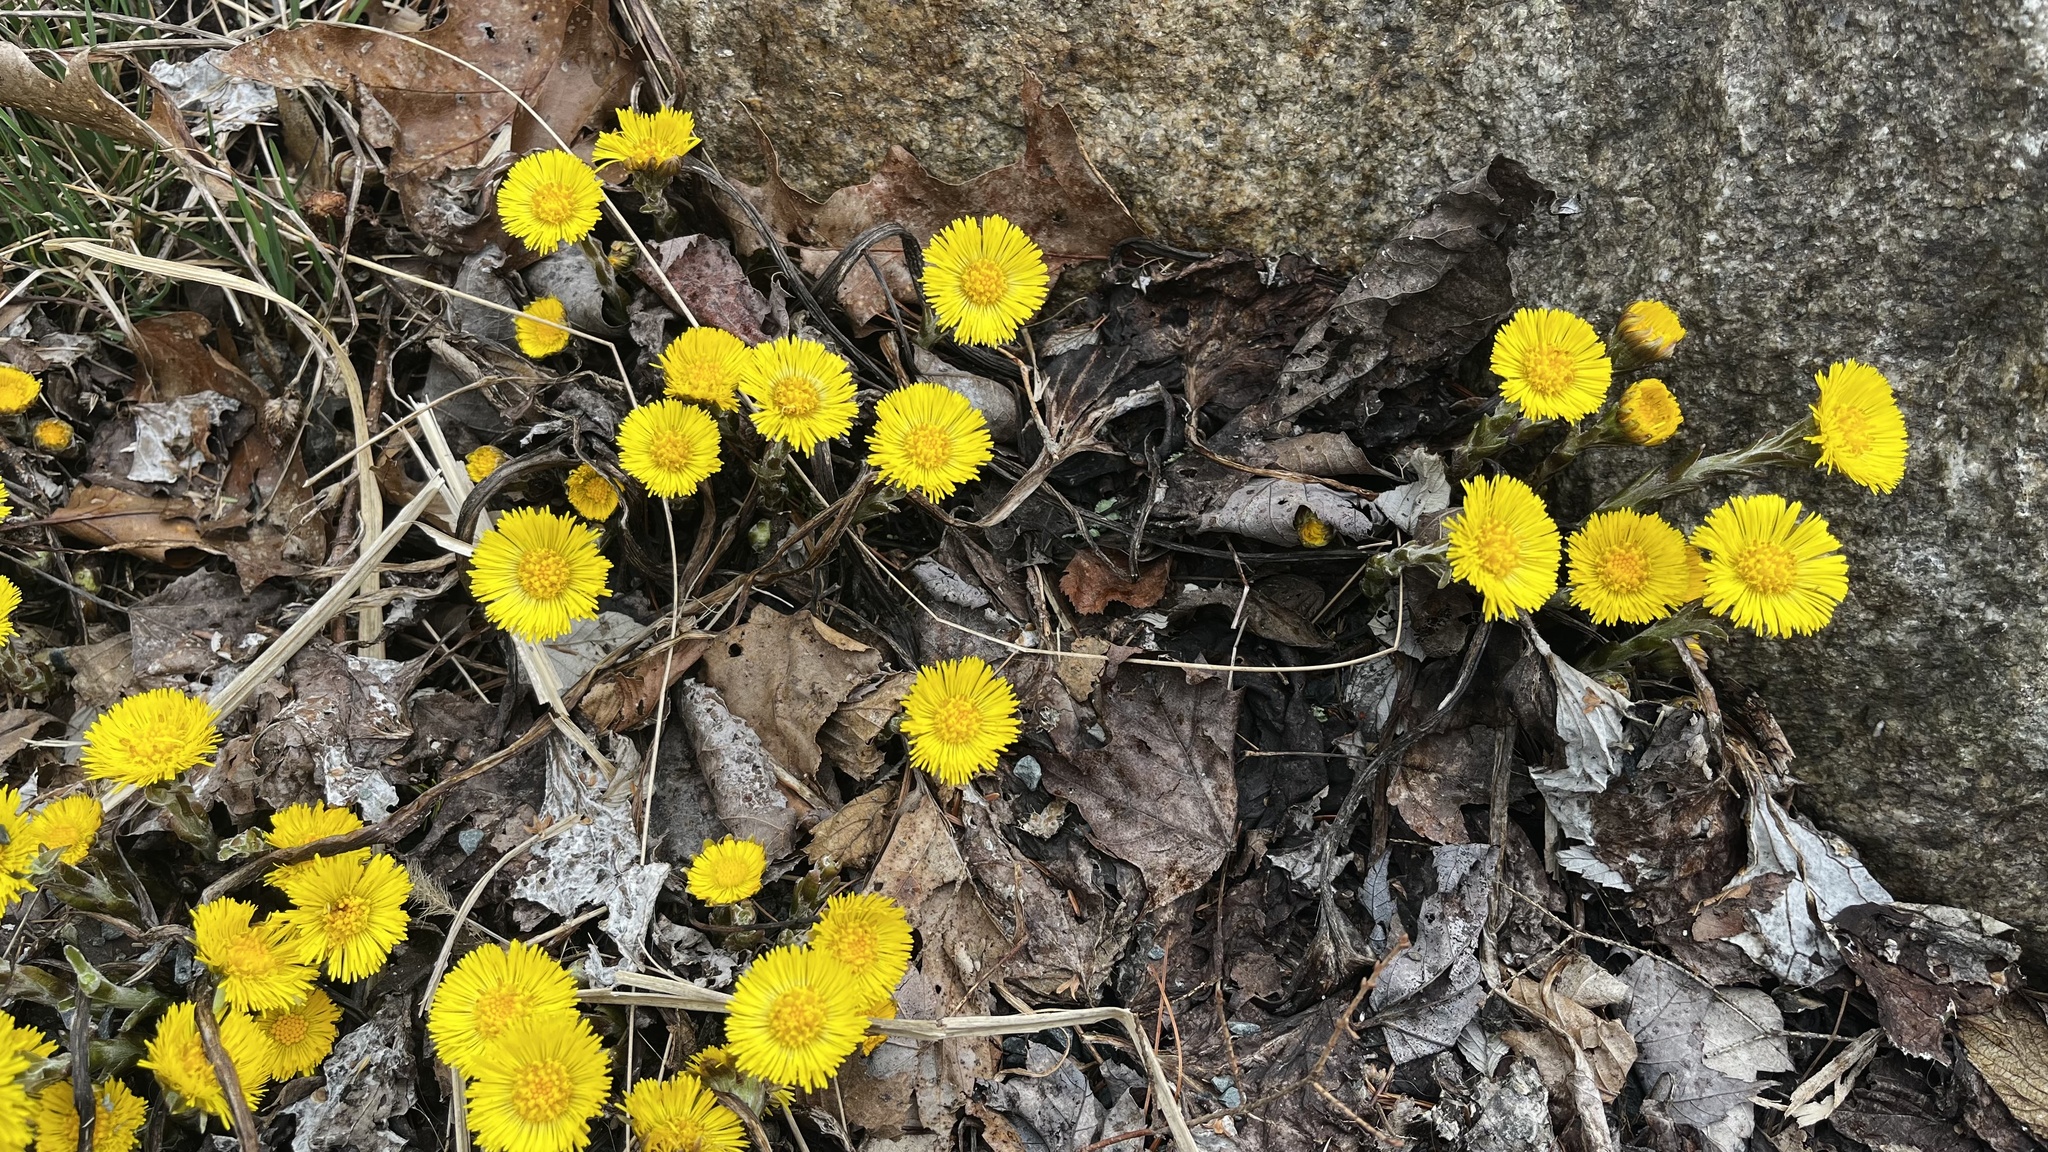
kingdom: Plantae
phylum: Tracheophyta
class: Magnoliopsida
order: Asterales
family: Asteraceae
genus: Tussilago
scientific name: Tussilago farfara
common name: Coltsfoot
